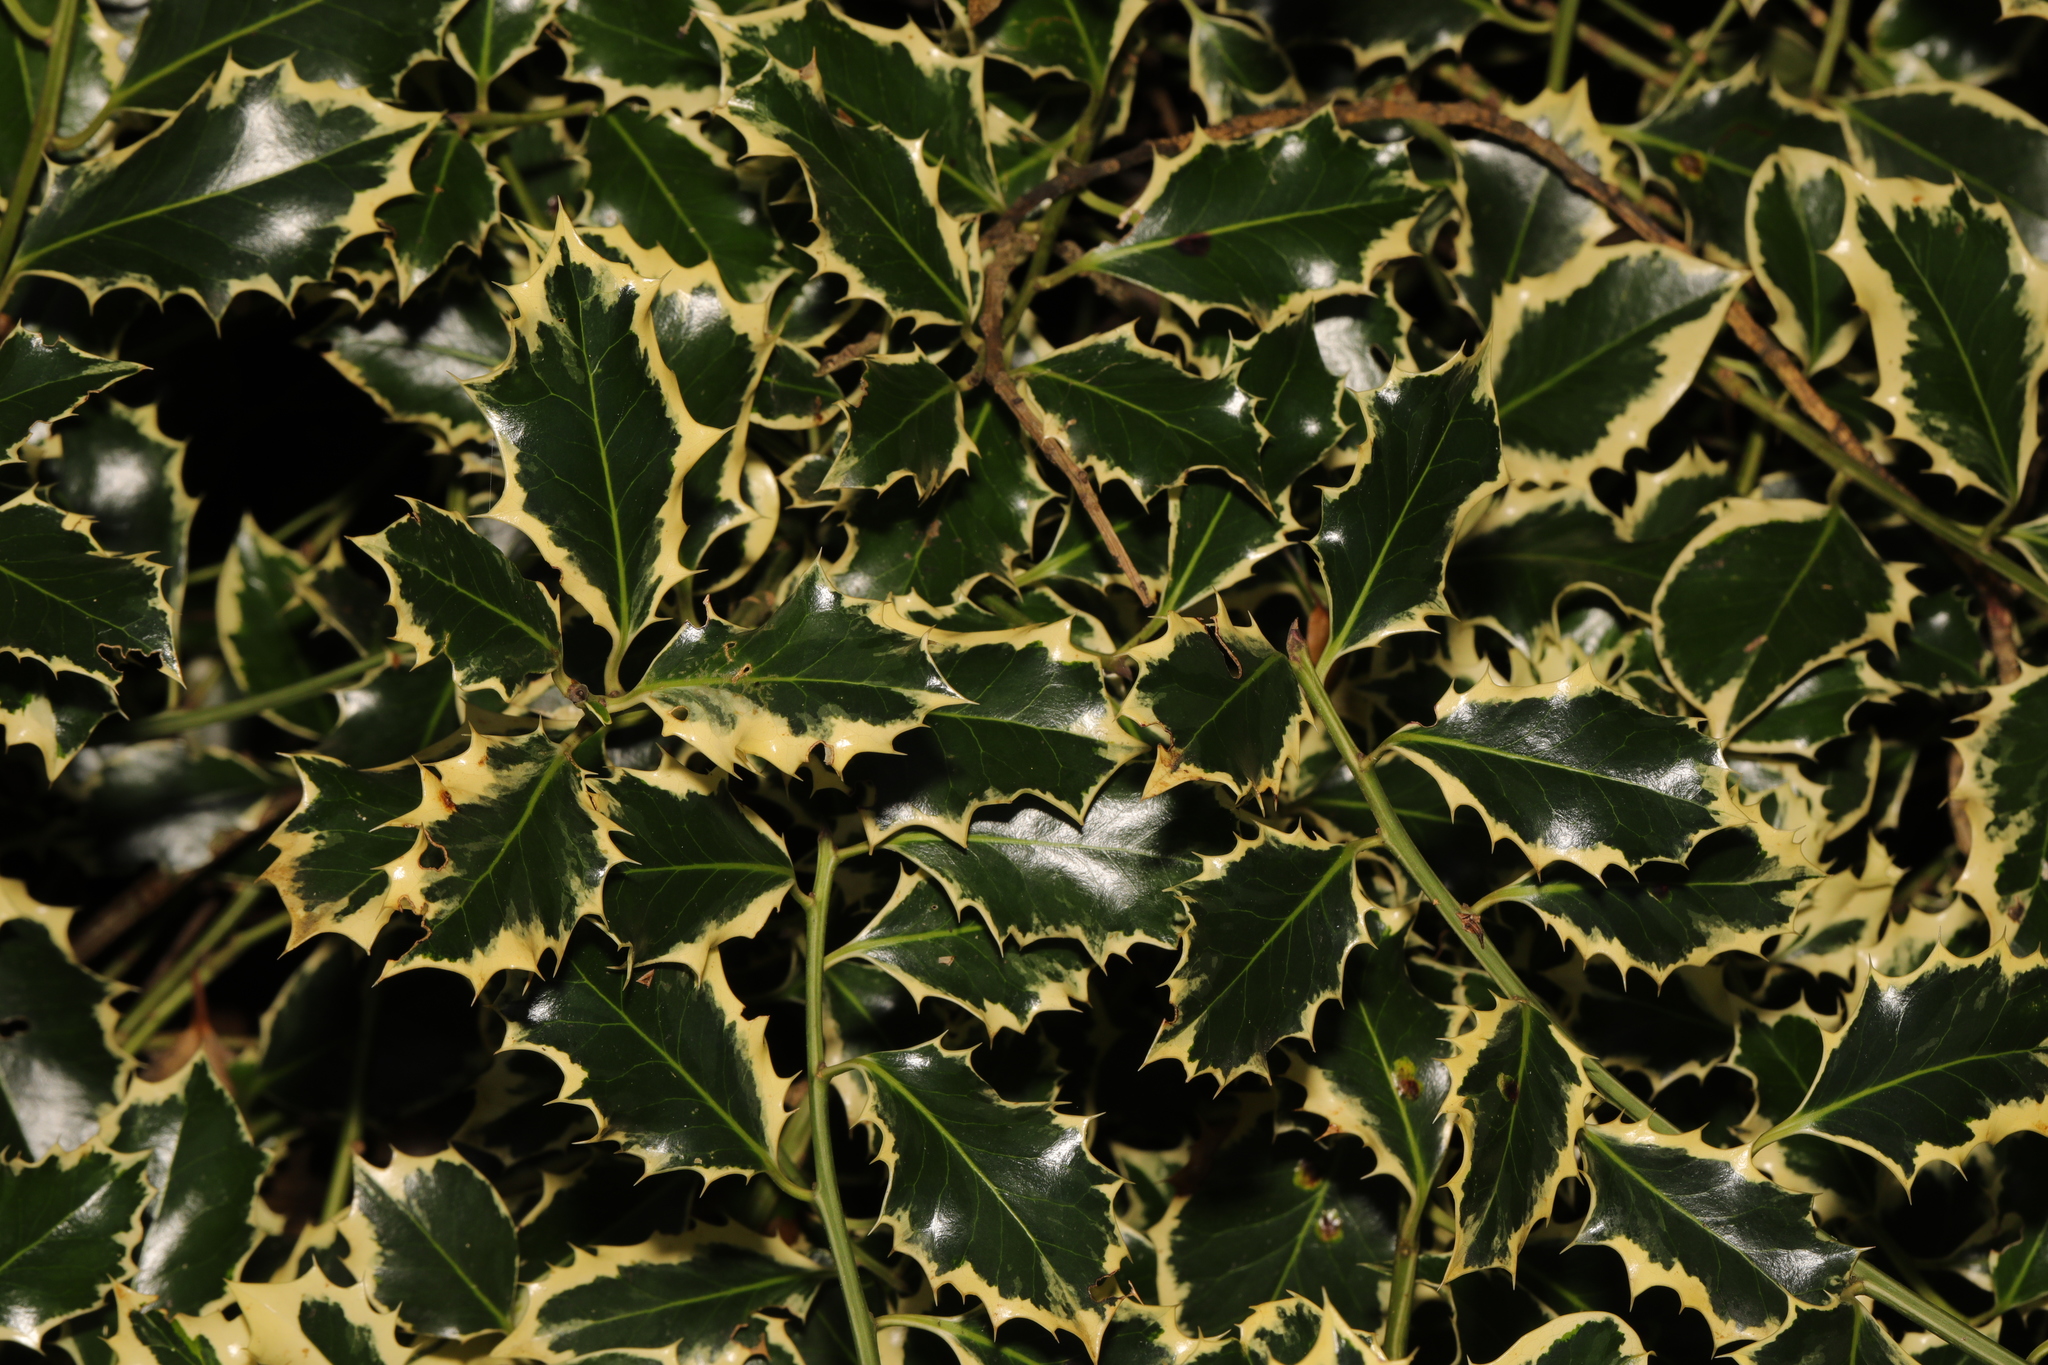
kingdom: Plantae
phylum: Tracheophyta
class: Magnoliopsida
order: Aquifoliales
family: Aquifoliaceae
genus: Ilex
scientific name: Ilex aquifolium
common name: English holly
